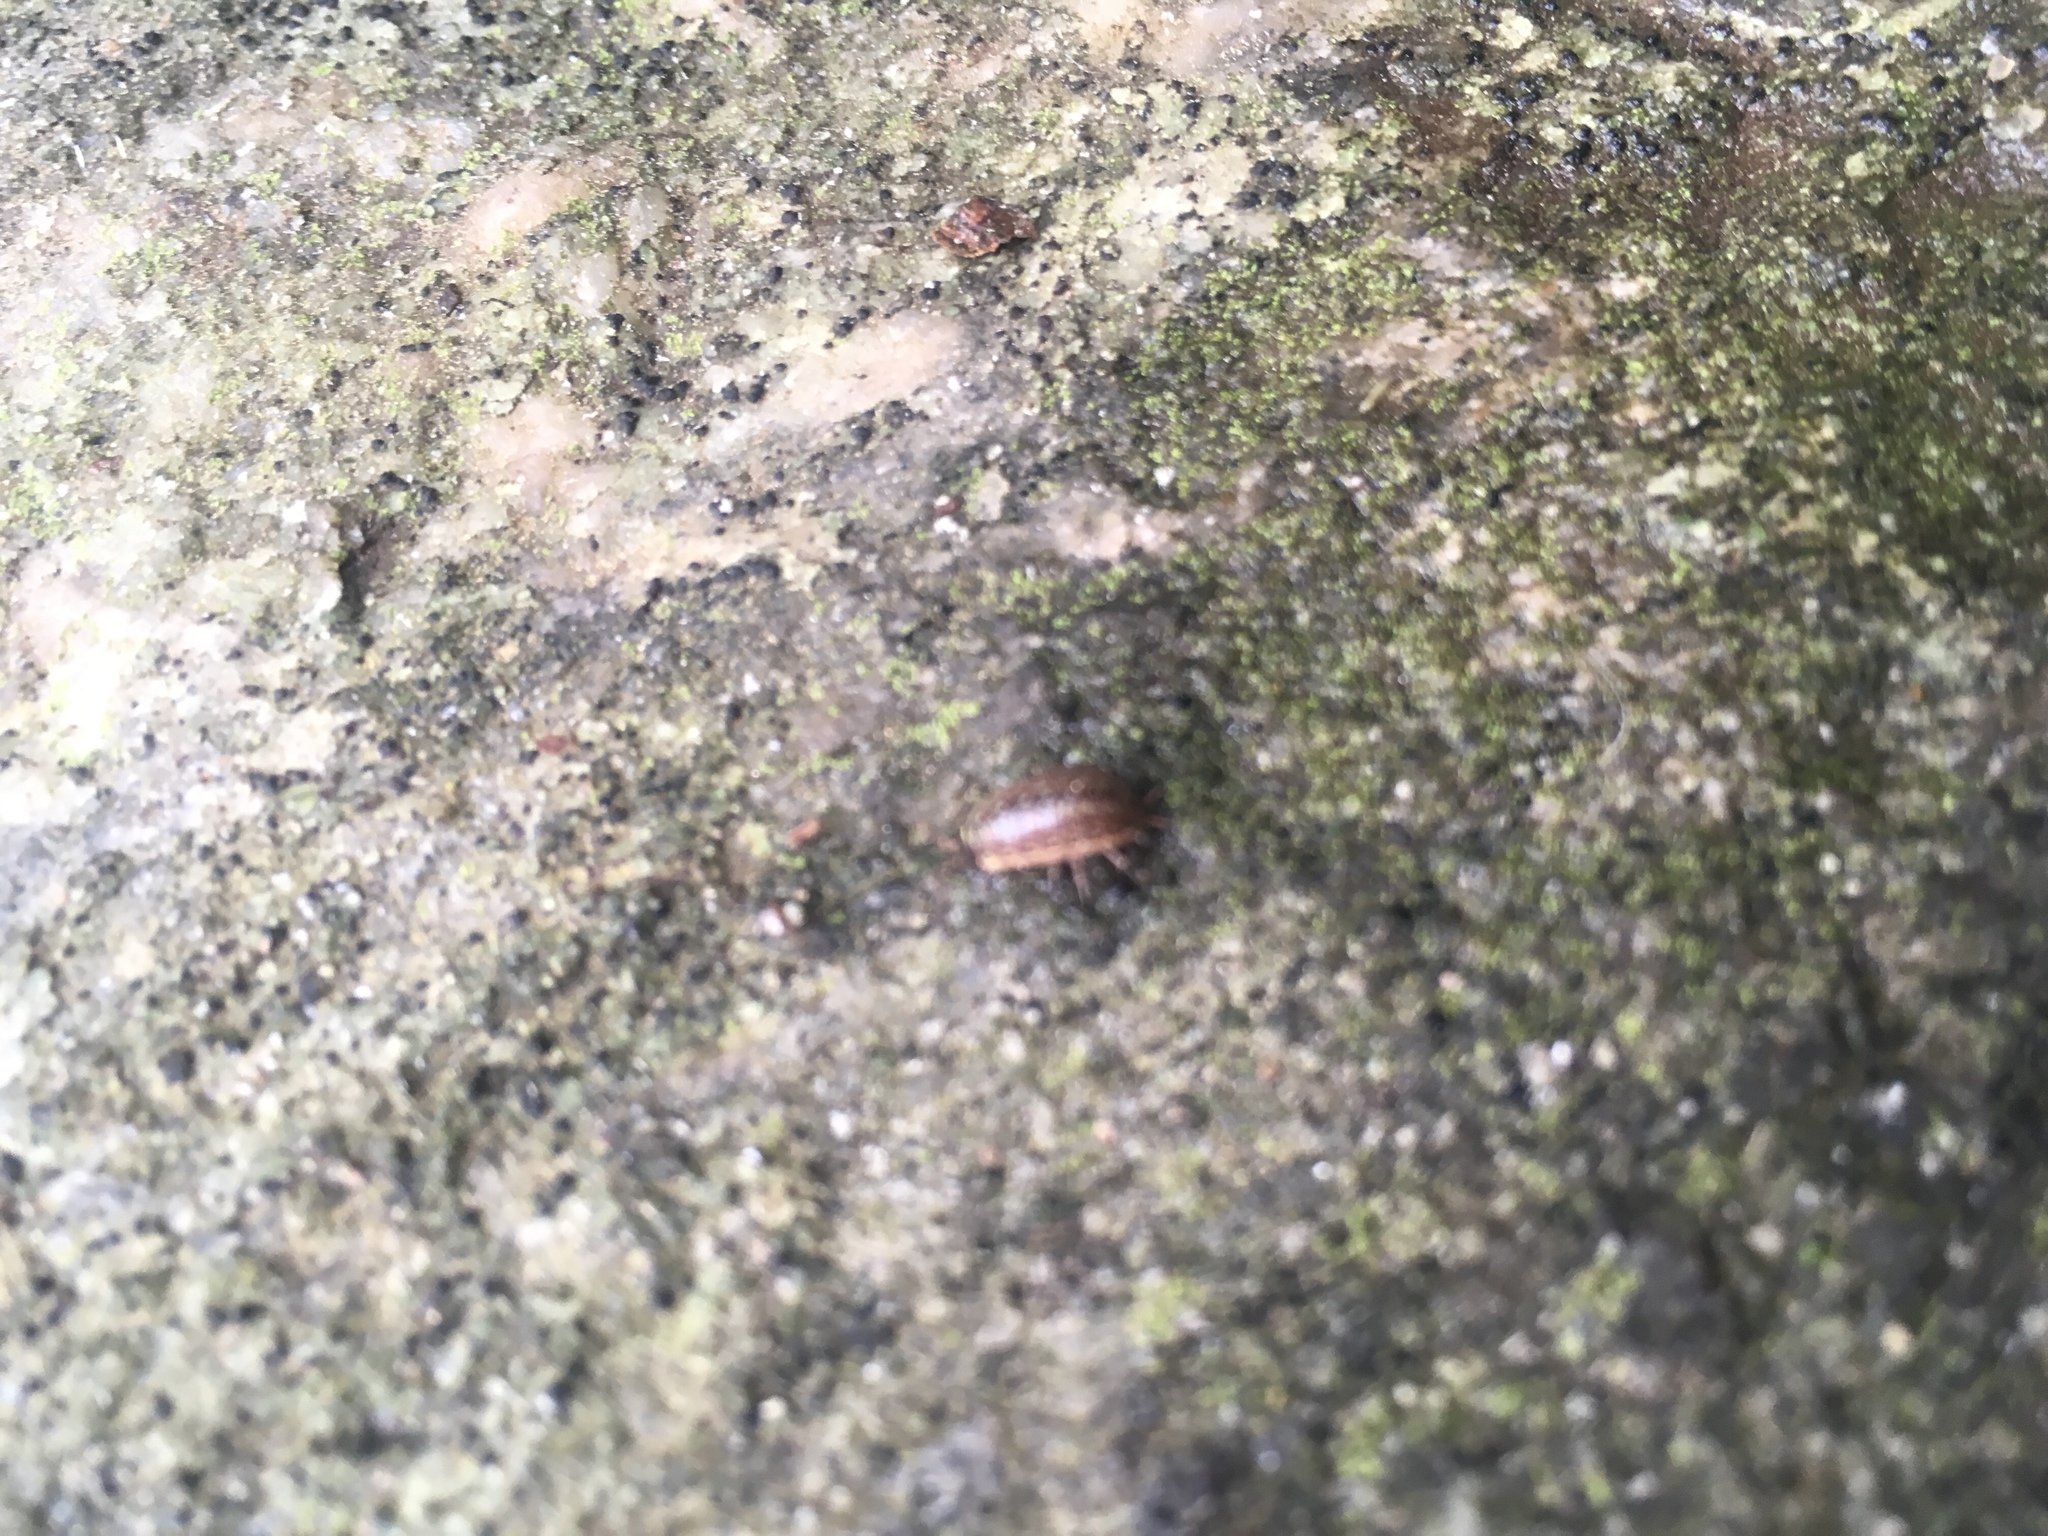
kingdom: Animalia
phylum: Arthropoda
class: Malacostraca
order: Isopoda
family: Philosciidae
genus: Philoscia
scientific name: Philoscia muscorum
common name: Common striped woodlouse
